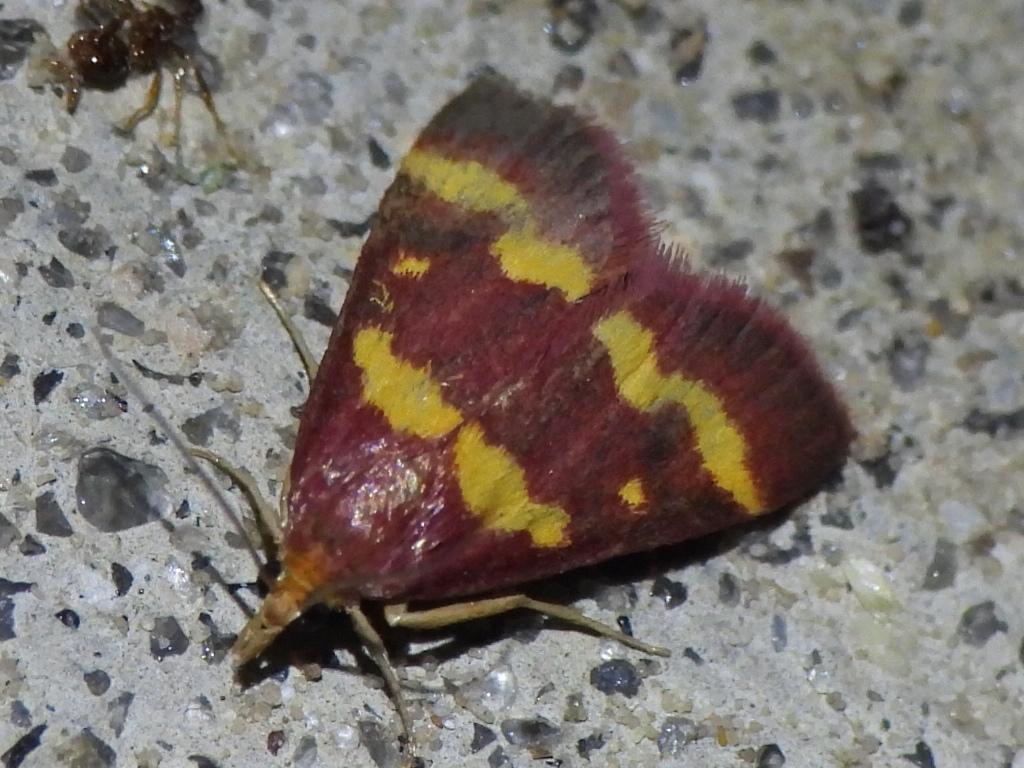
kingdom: Animalia
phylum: Arthropoda
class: Insecta
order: Lepidoptera
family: Crambidae
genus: Pyrausta
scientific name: Pyrausta tyralis
